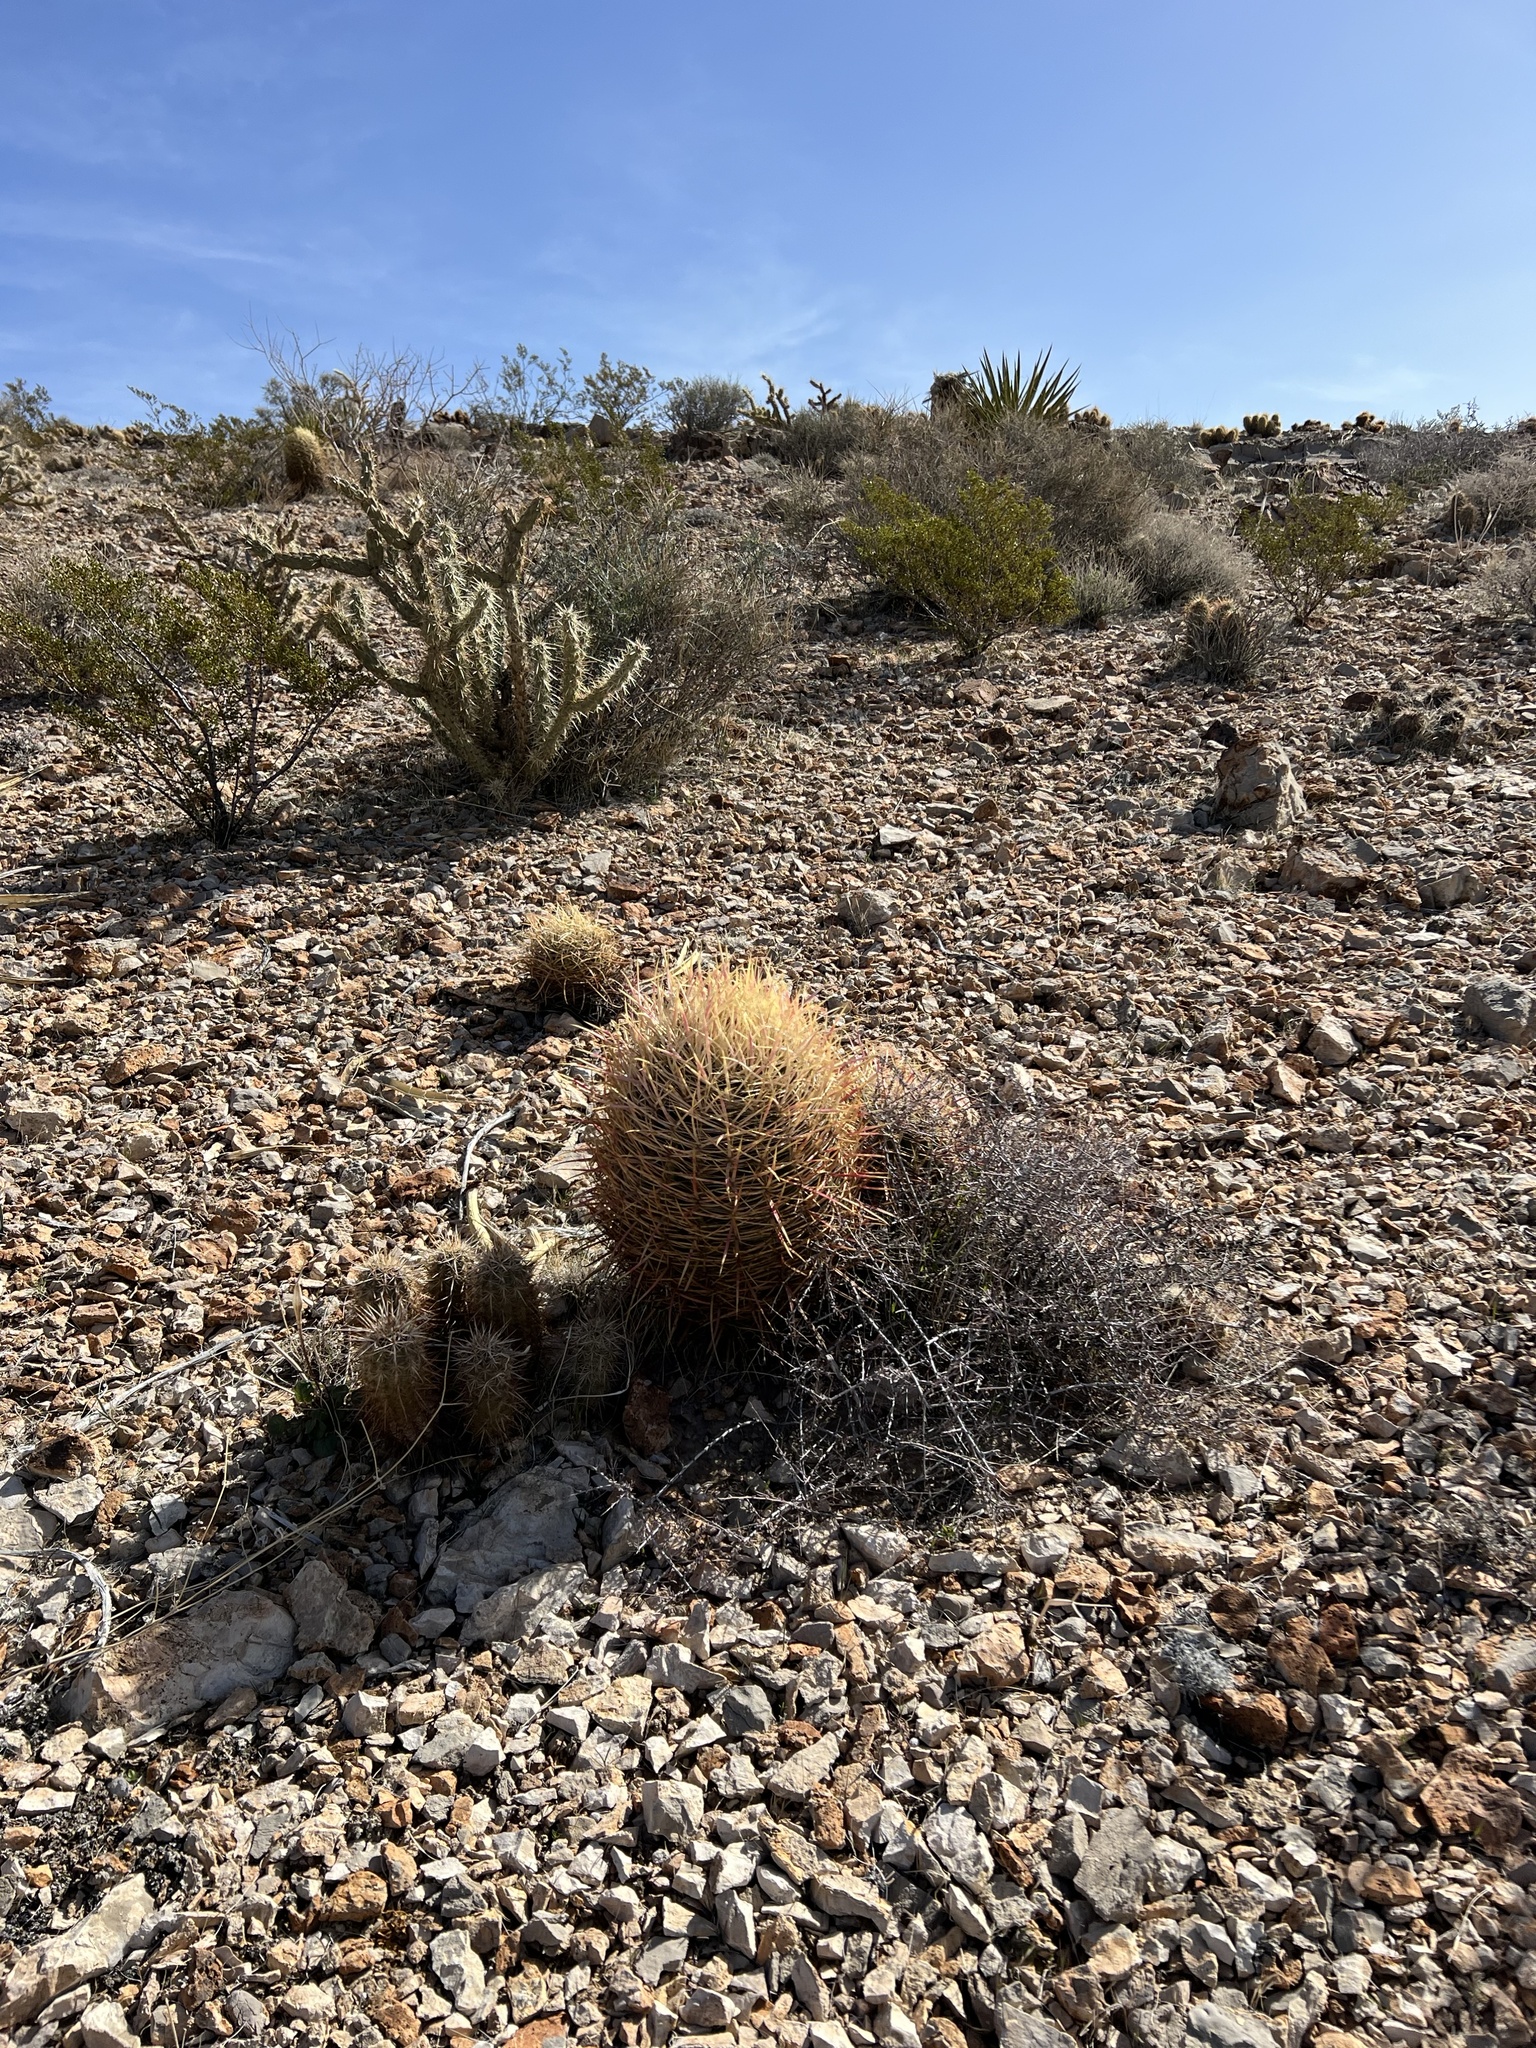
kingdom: Plantae
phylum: Tracheophyta
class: Magnoliopsida
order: Caryophyllales
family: Cactaceae
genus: Ferocactus
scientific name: Ferocactus cylindraceus
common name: California barrel cactus
